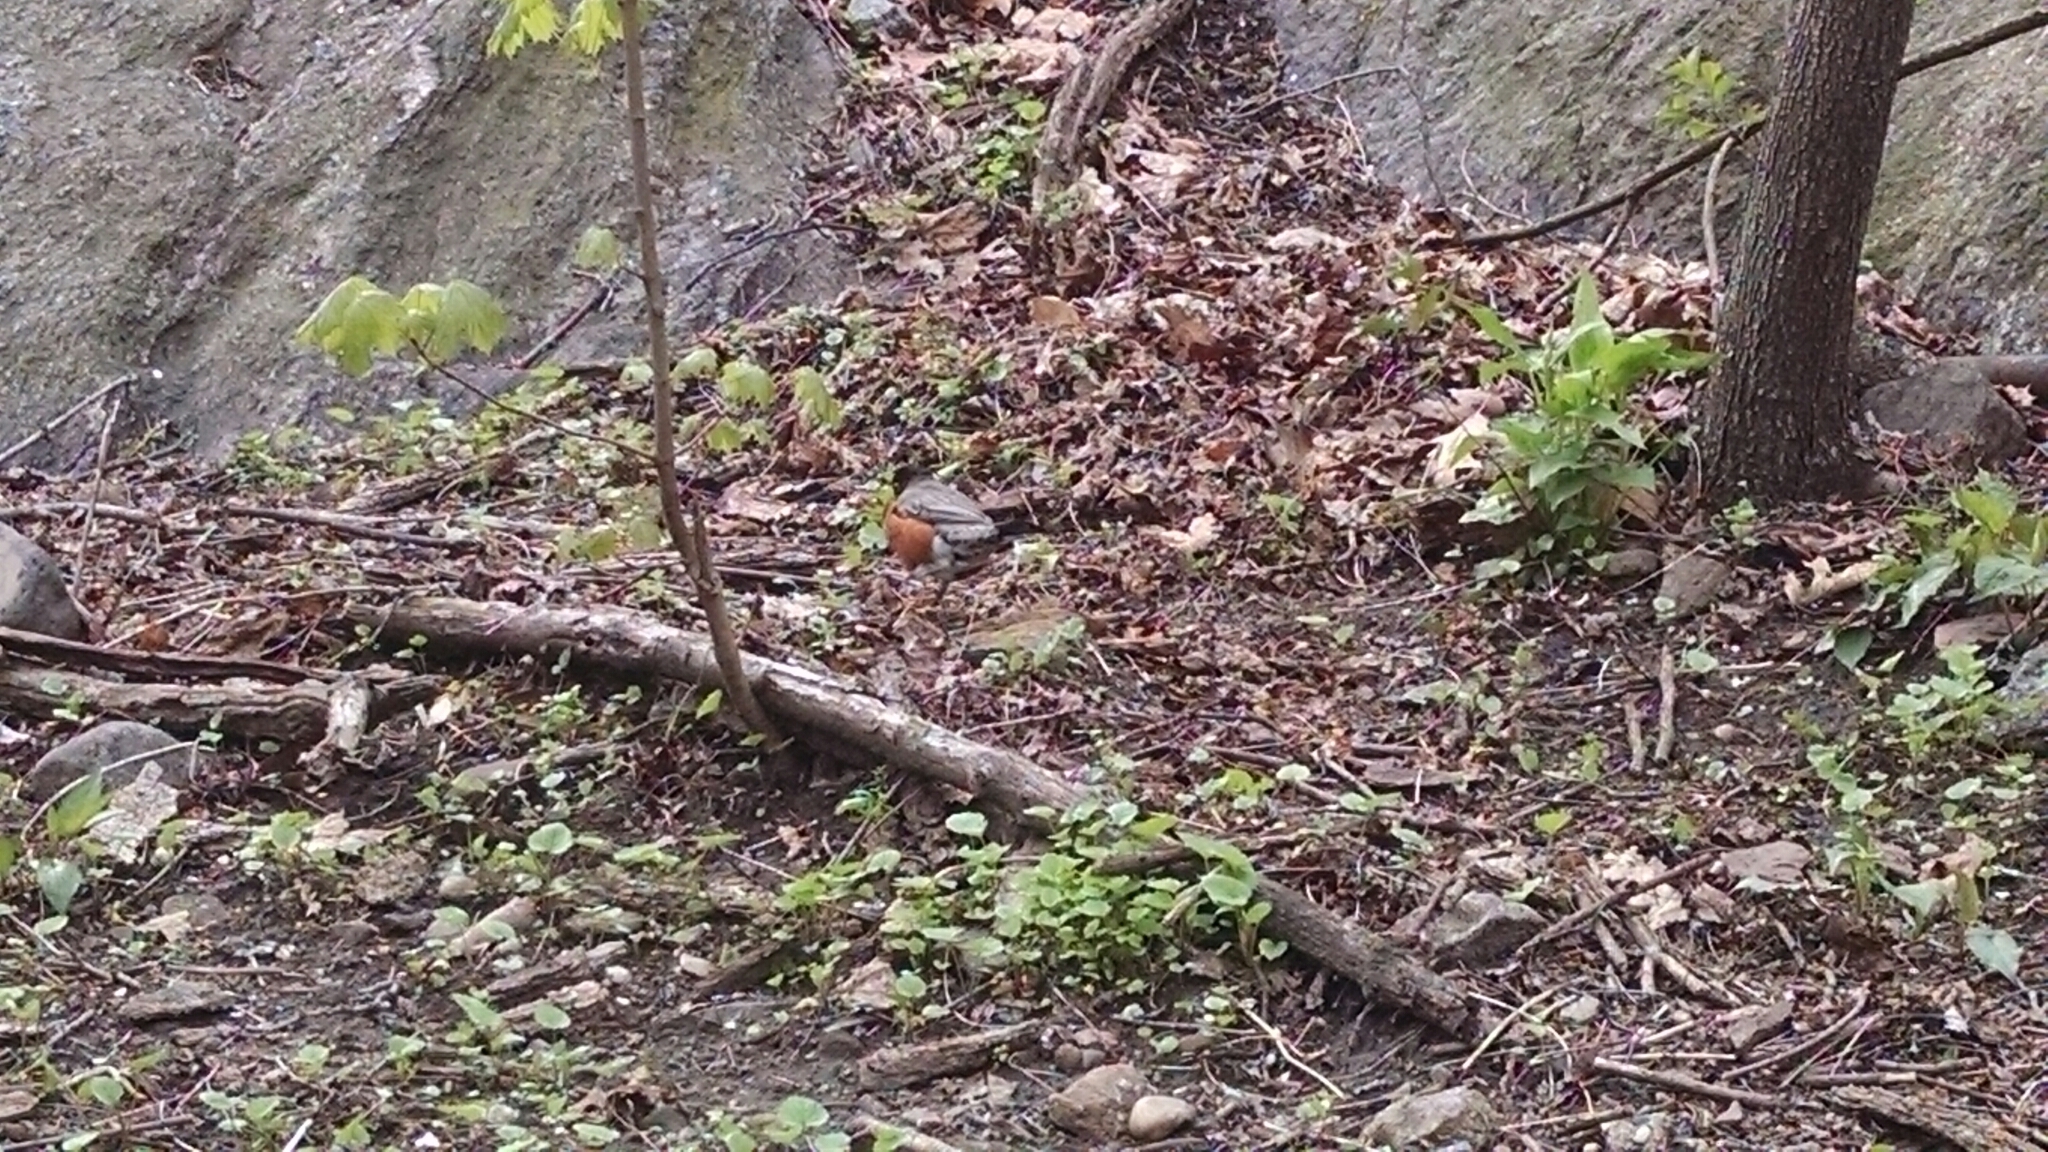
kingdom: Animalia
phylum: Chordata
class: Aves
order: Passeriformes
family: Turdidae
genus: Turdus
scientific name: Turdus migratorius
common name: American robin
